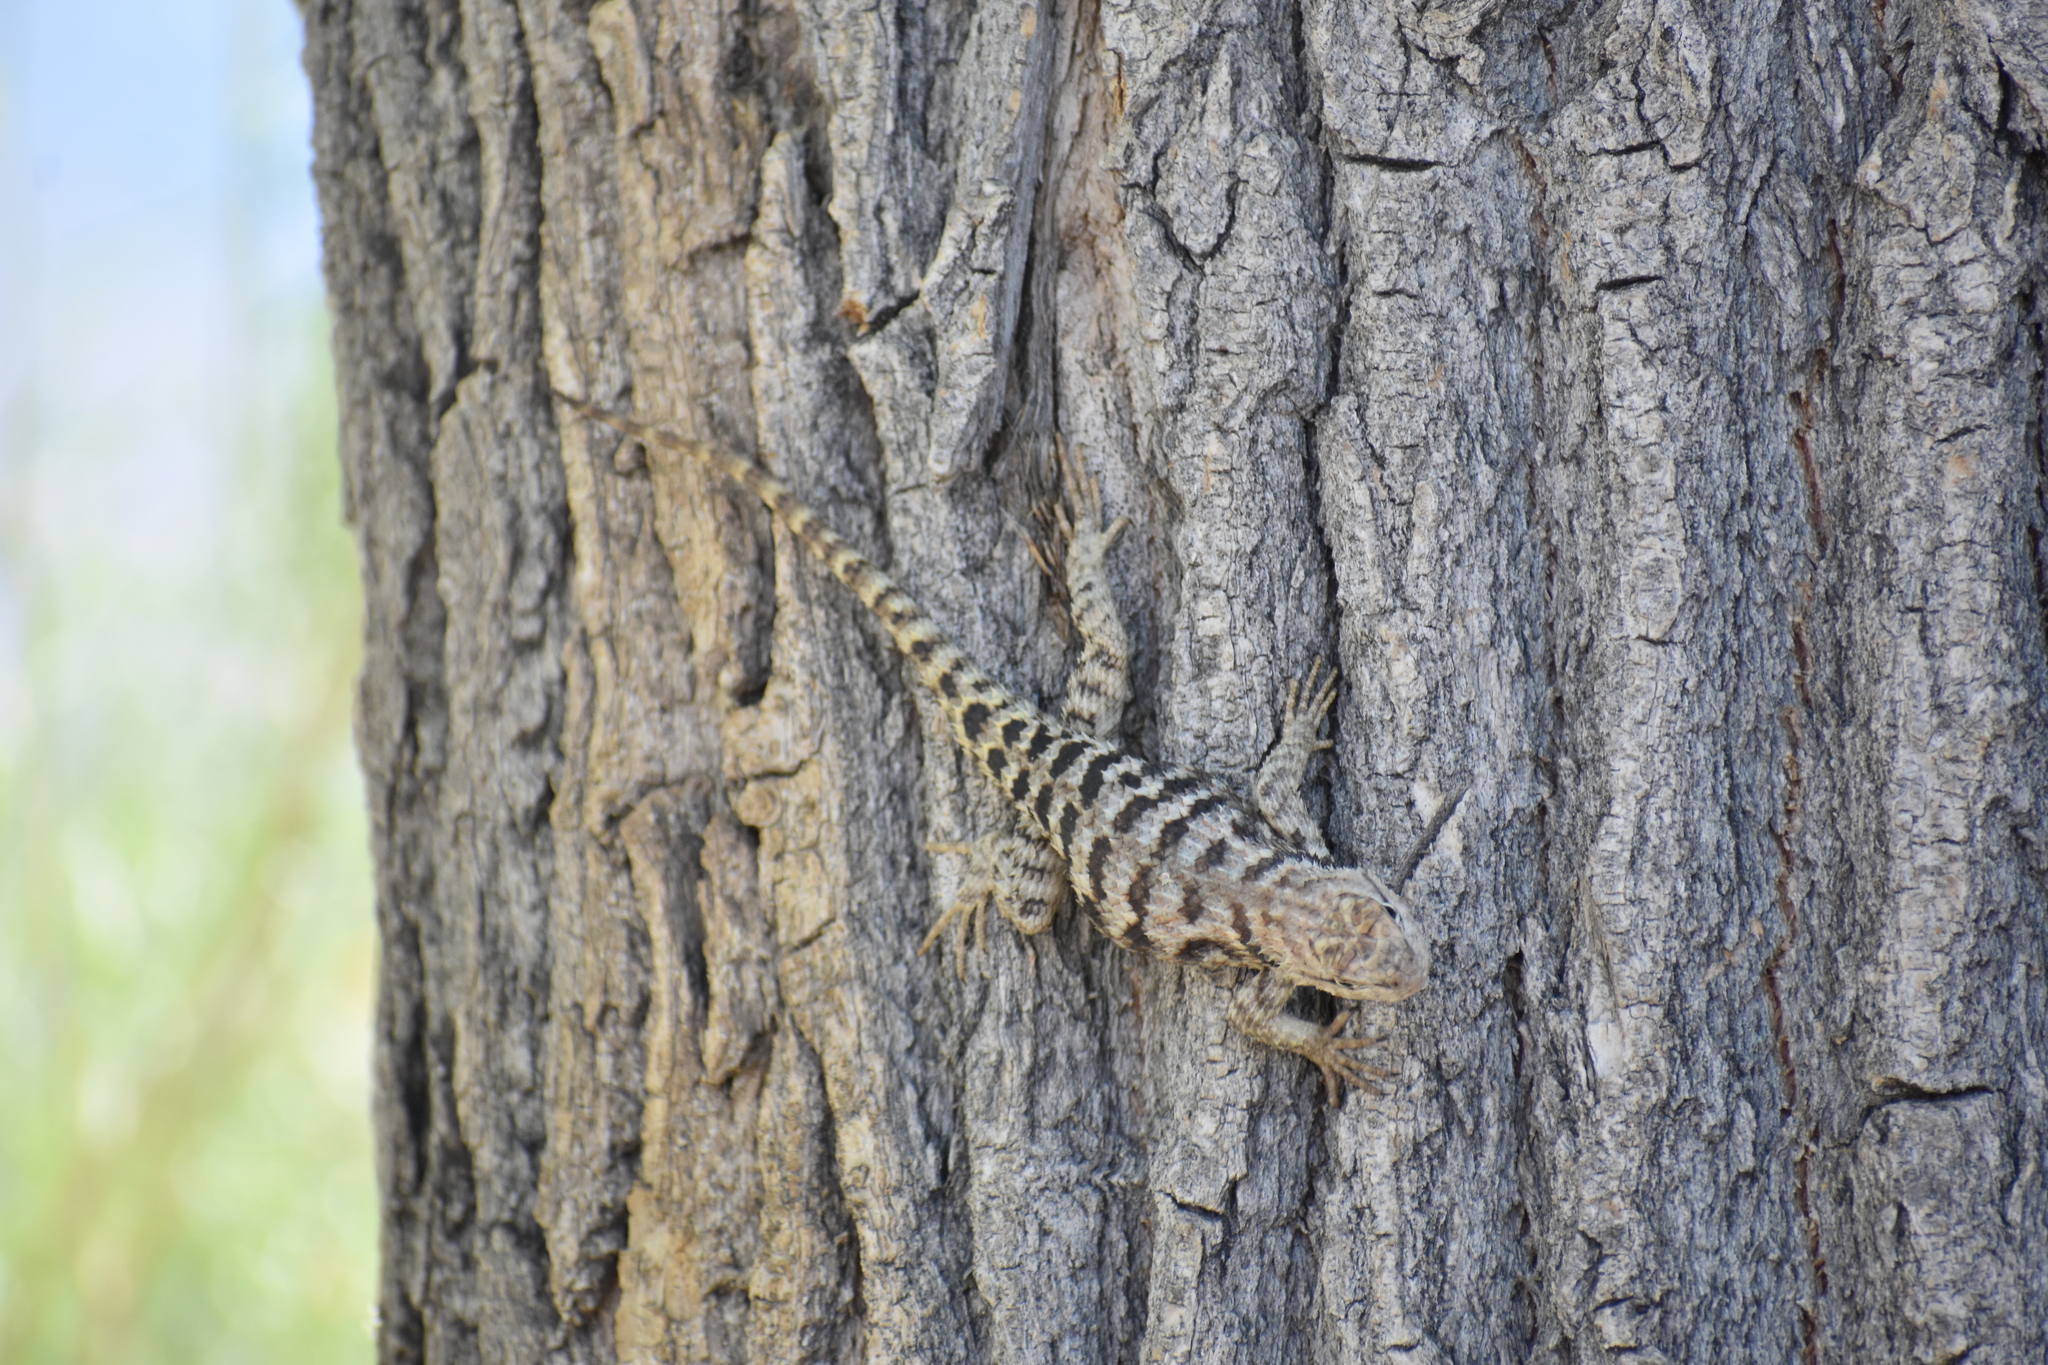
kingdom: Animalia
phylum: Chordata
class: Squamata
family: Phrynosomatidae
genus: Sceloporus
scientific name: Sceloporus uniformis
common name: Yellow-backed spiny lizard
